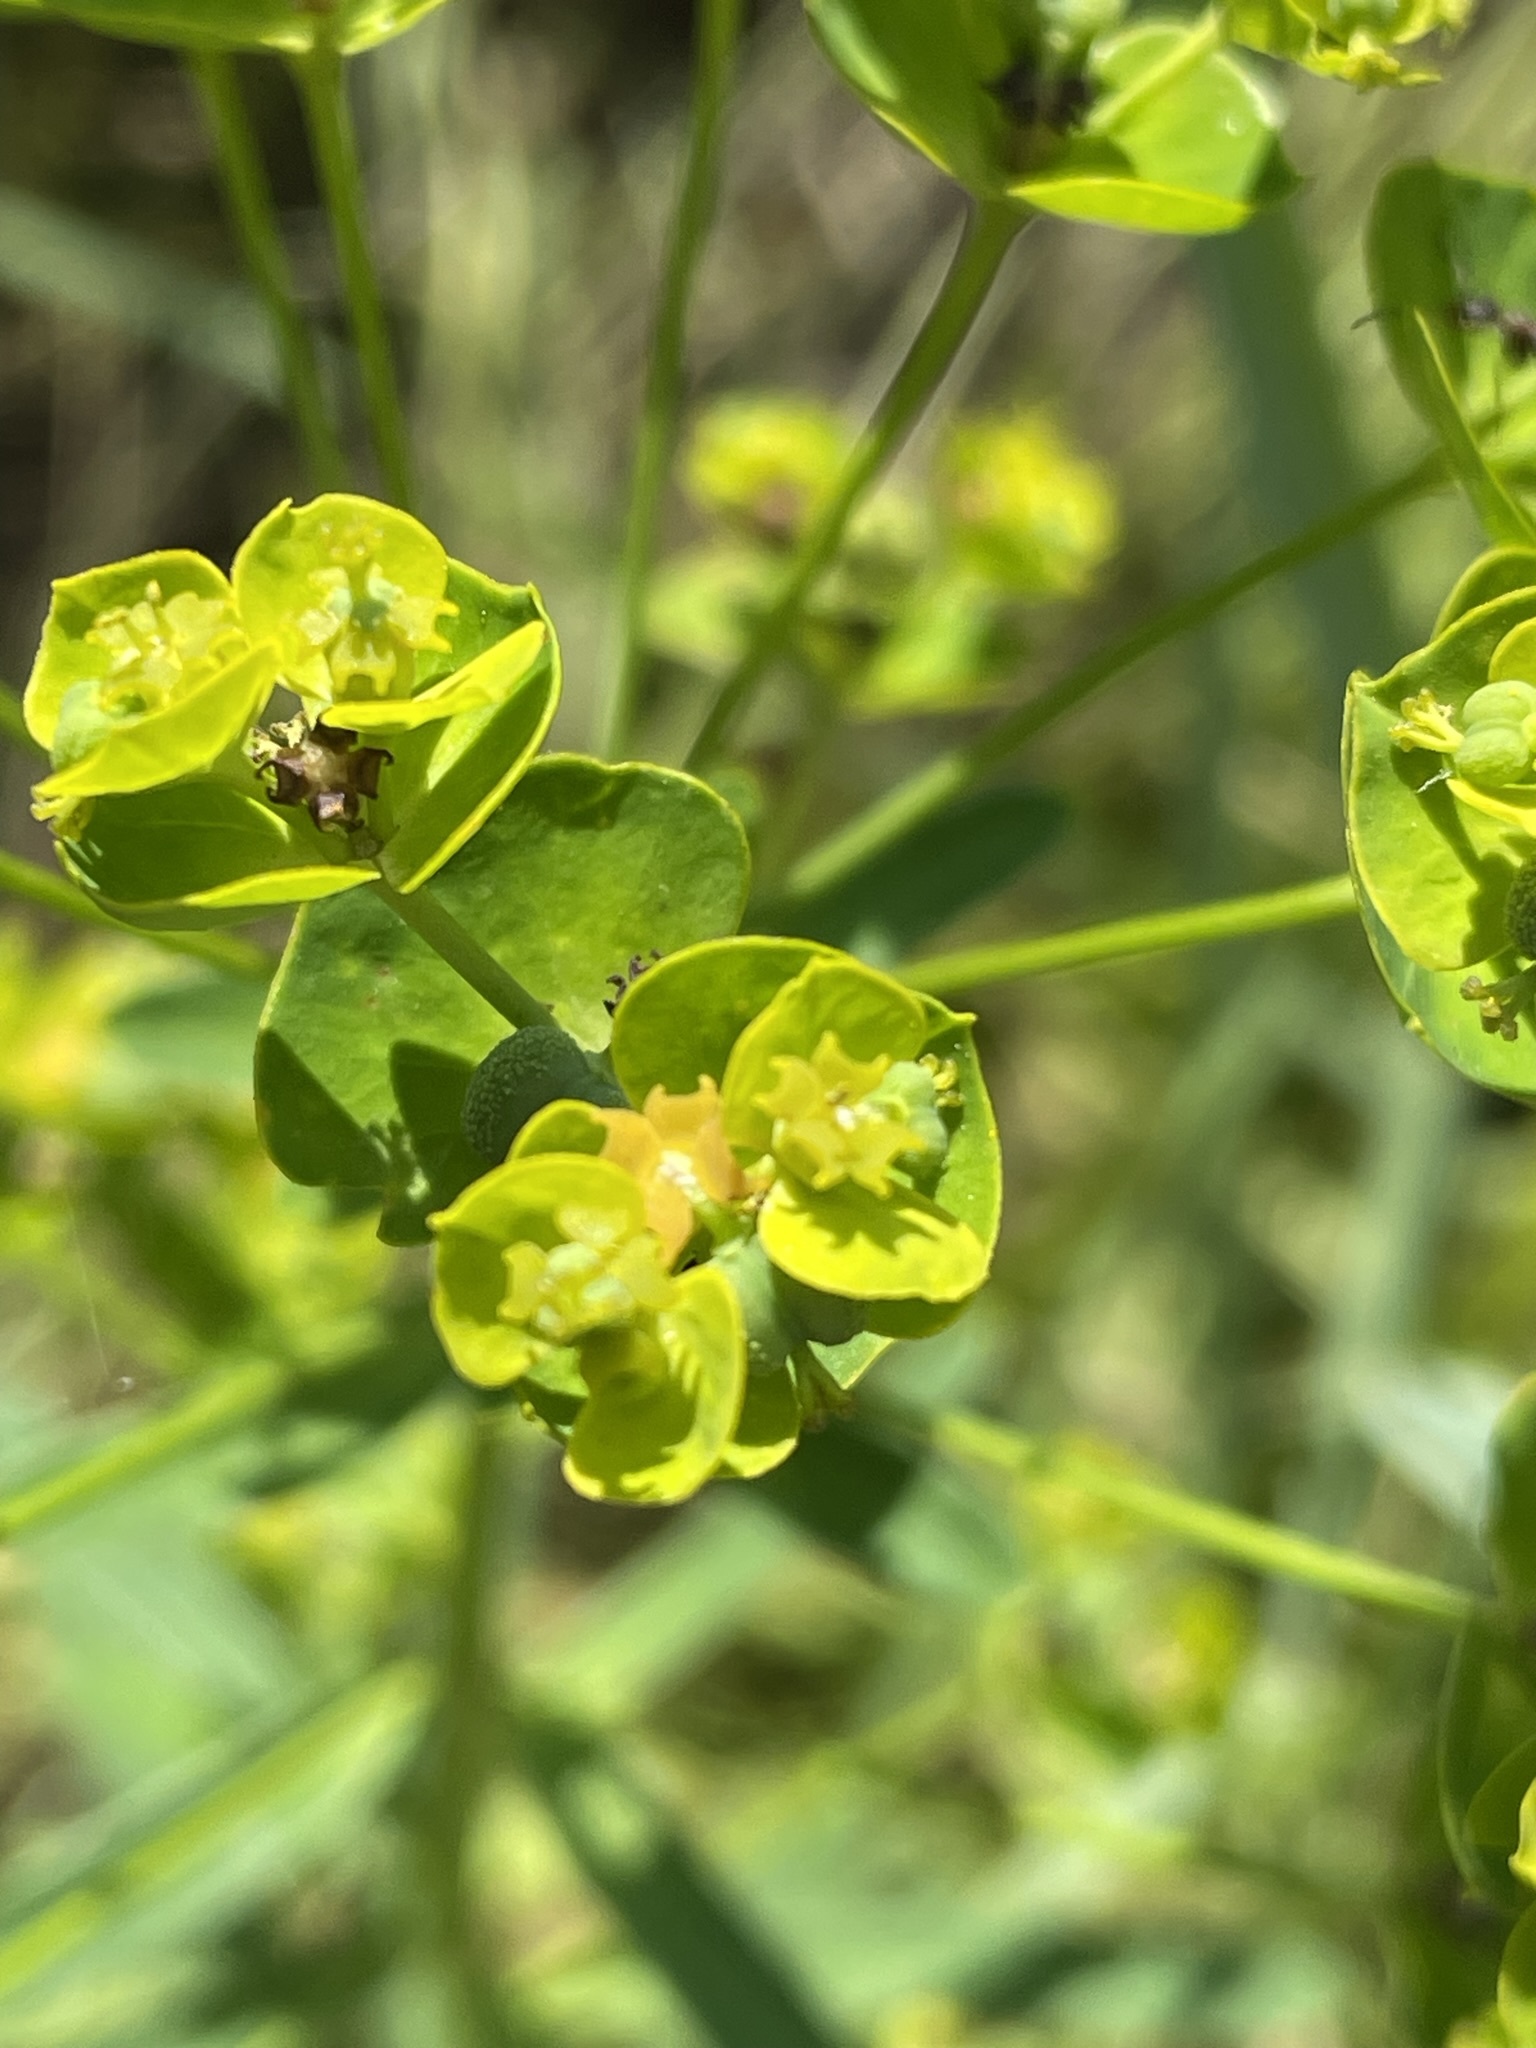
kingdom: Plantae
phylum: Tracheophyta
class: Magnoliopsida
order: Malpighiales
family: Euphorbiaceae
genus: Euphorbia
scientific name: Euphorbia esula
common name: Leafy spurge
